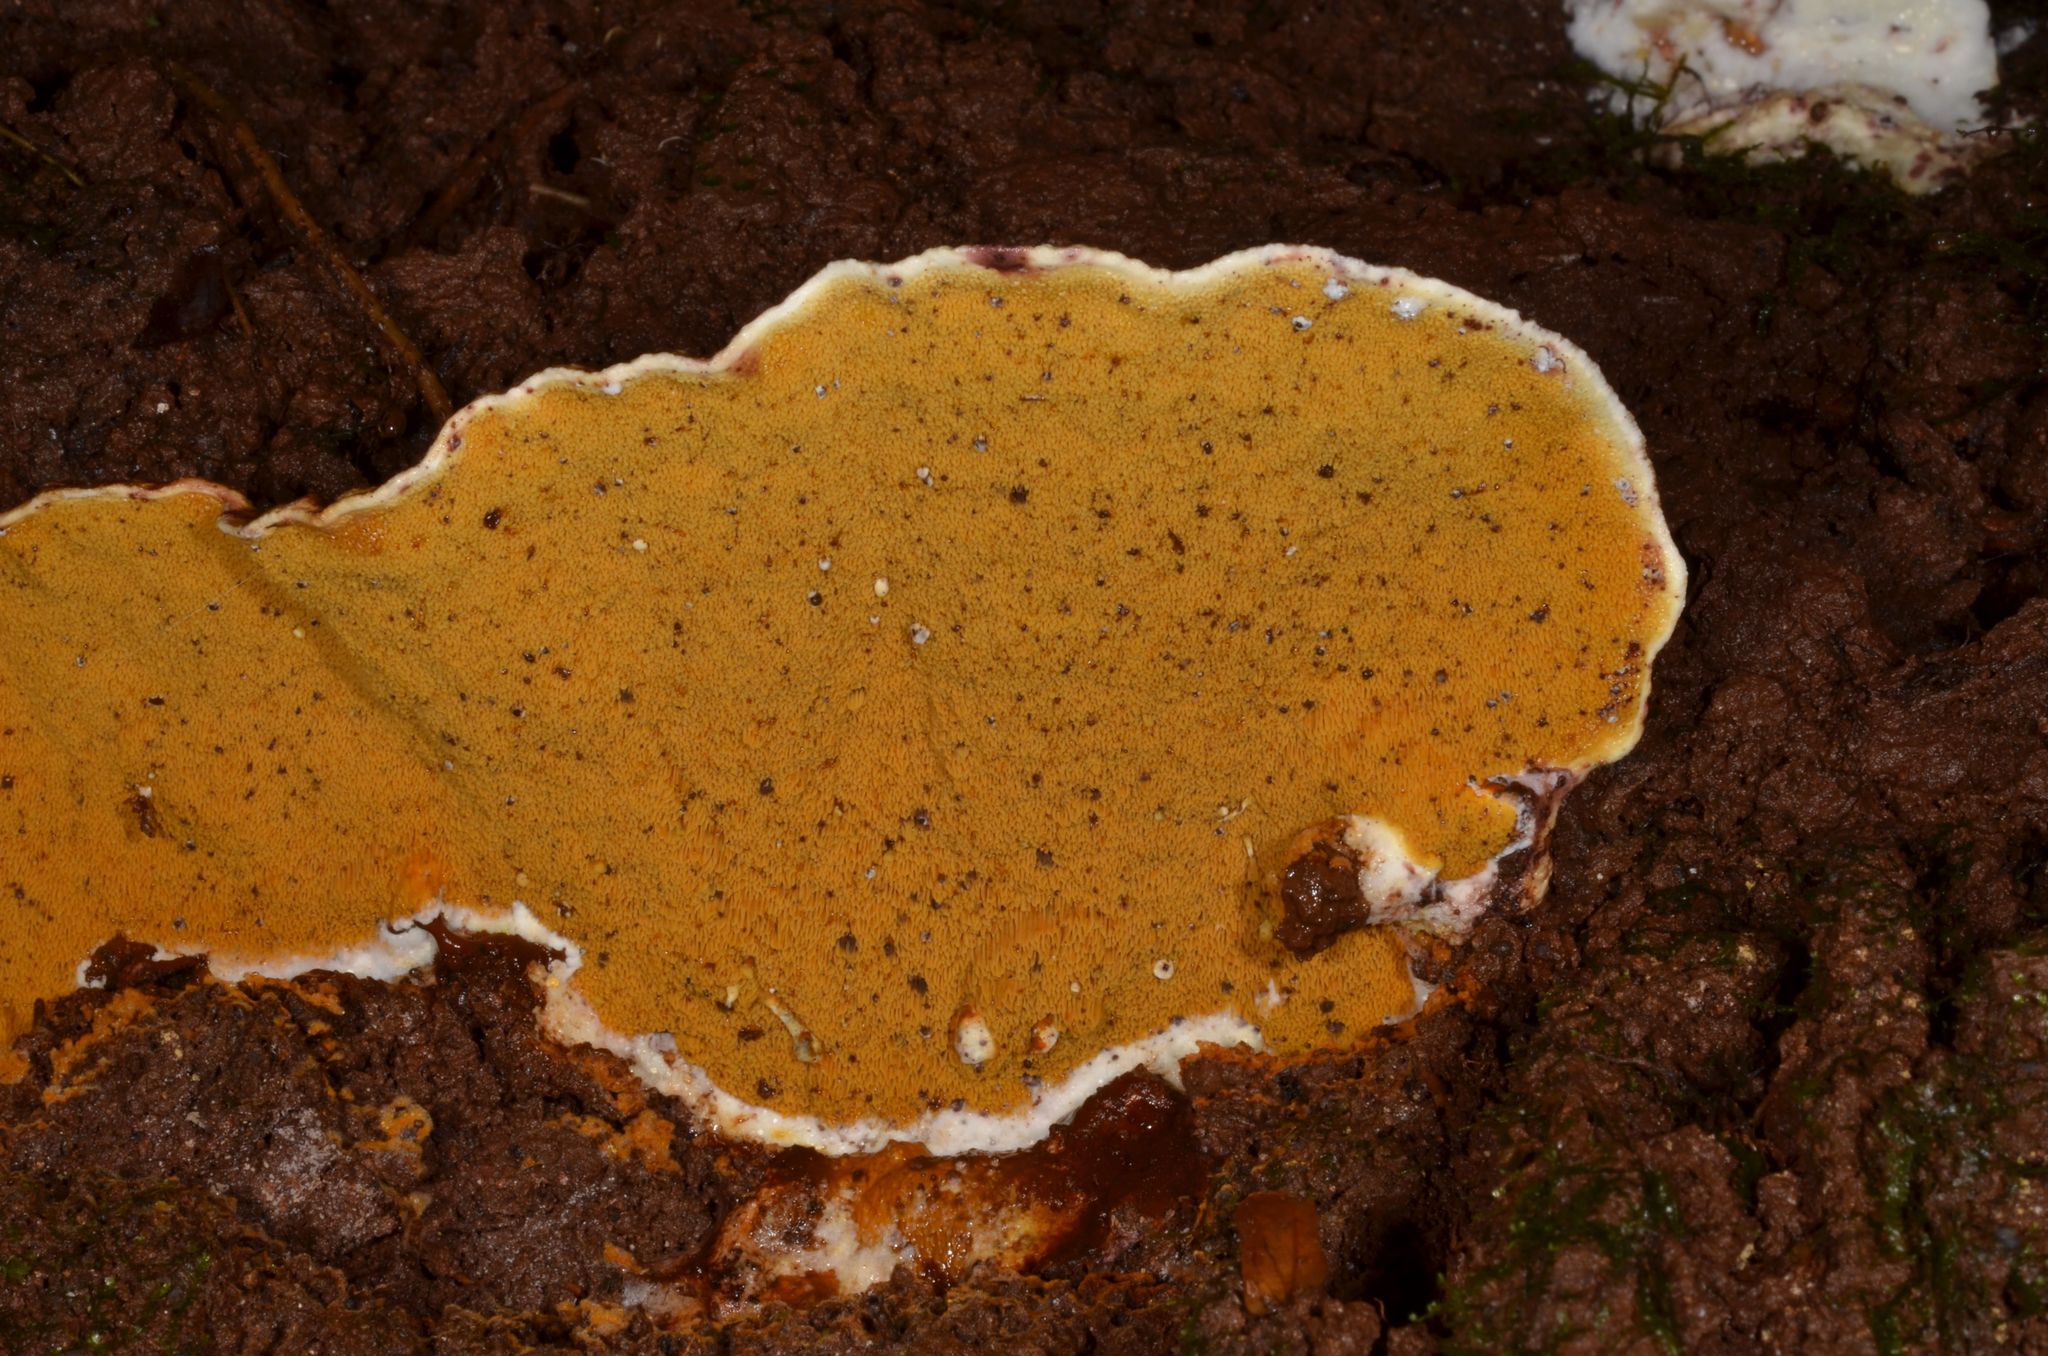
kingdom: Fungi
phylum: Basidiomycota
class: Agaricomycetes
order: Boletales
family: Serpulaceae
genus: Serpula
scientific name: Serpula similis
